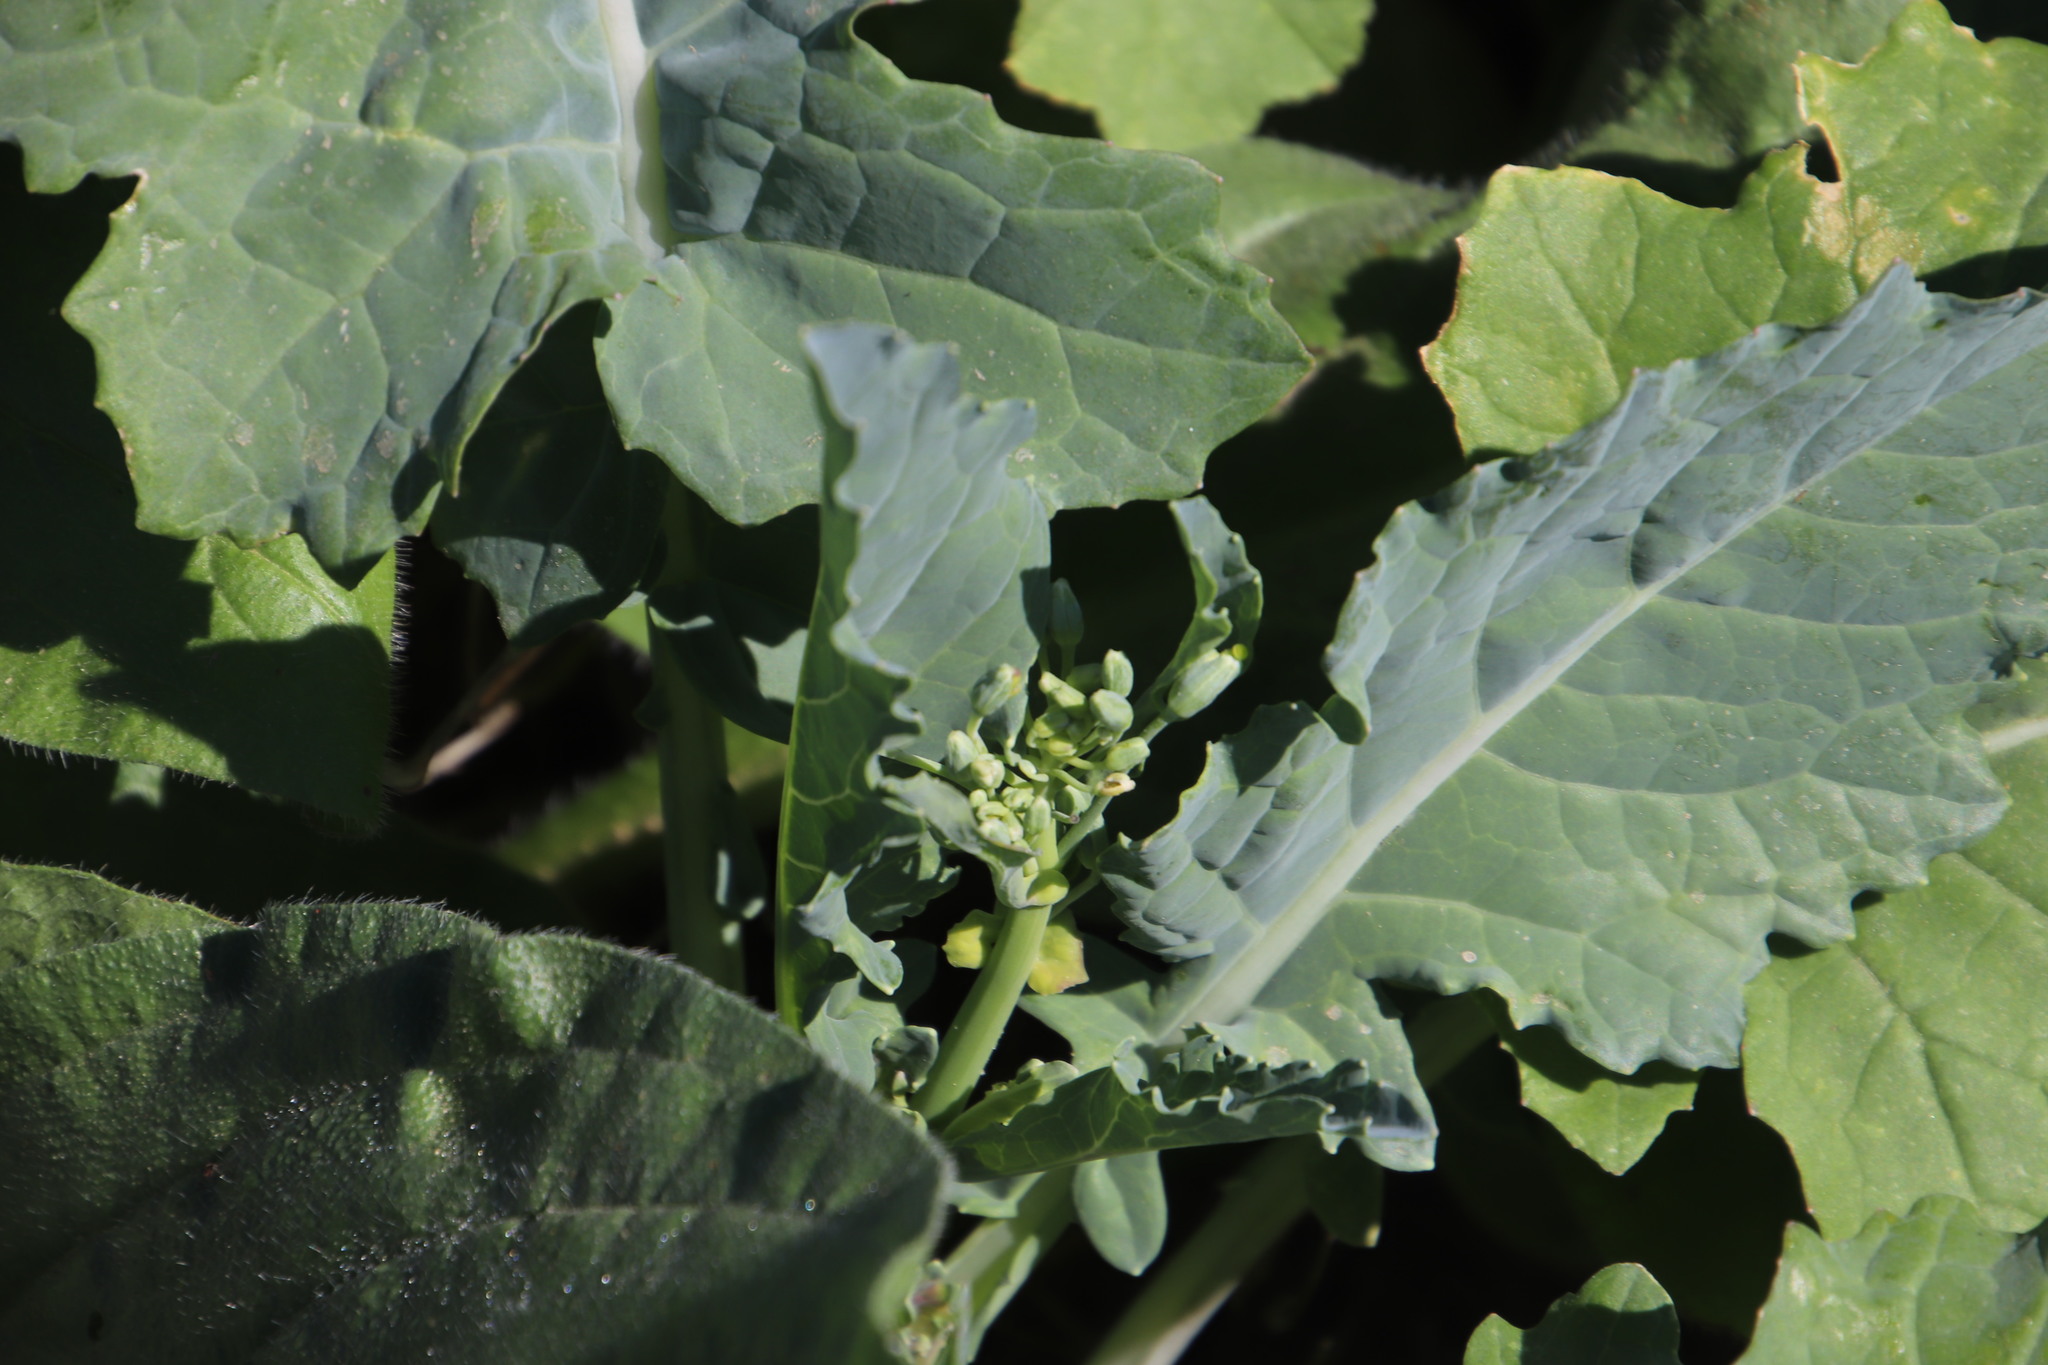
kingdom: Plantae
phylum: Tracheophyta
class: Magnoliopsida
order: Caryophyllales
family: Amaranthaceae
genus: Chenopodiastrum
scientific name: Chenopodiastrum murale
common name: Sowbane
